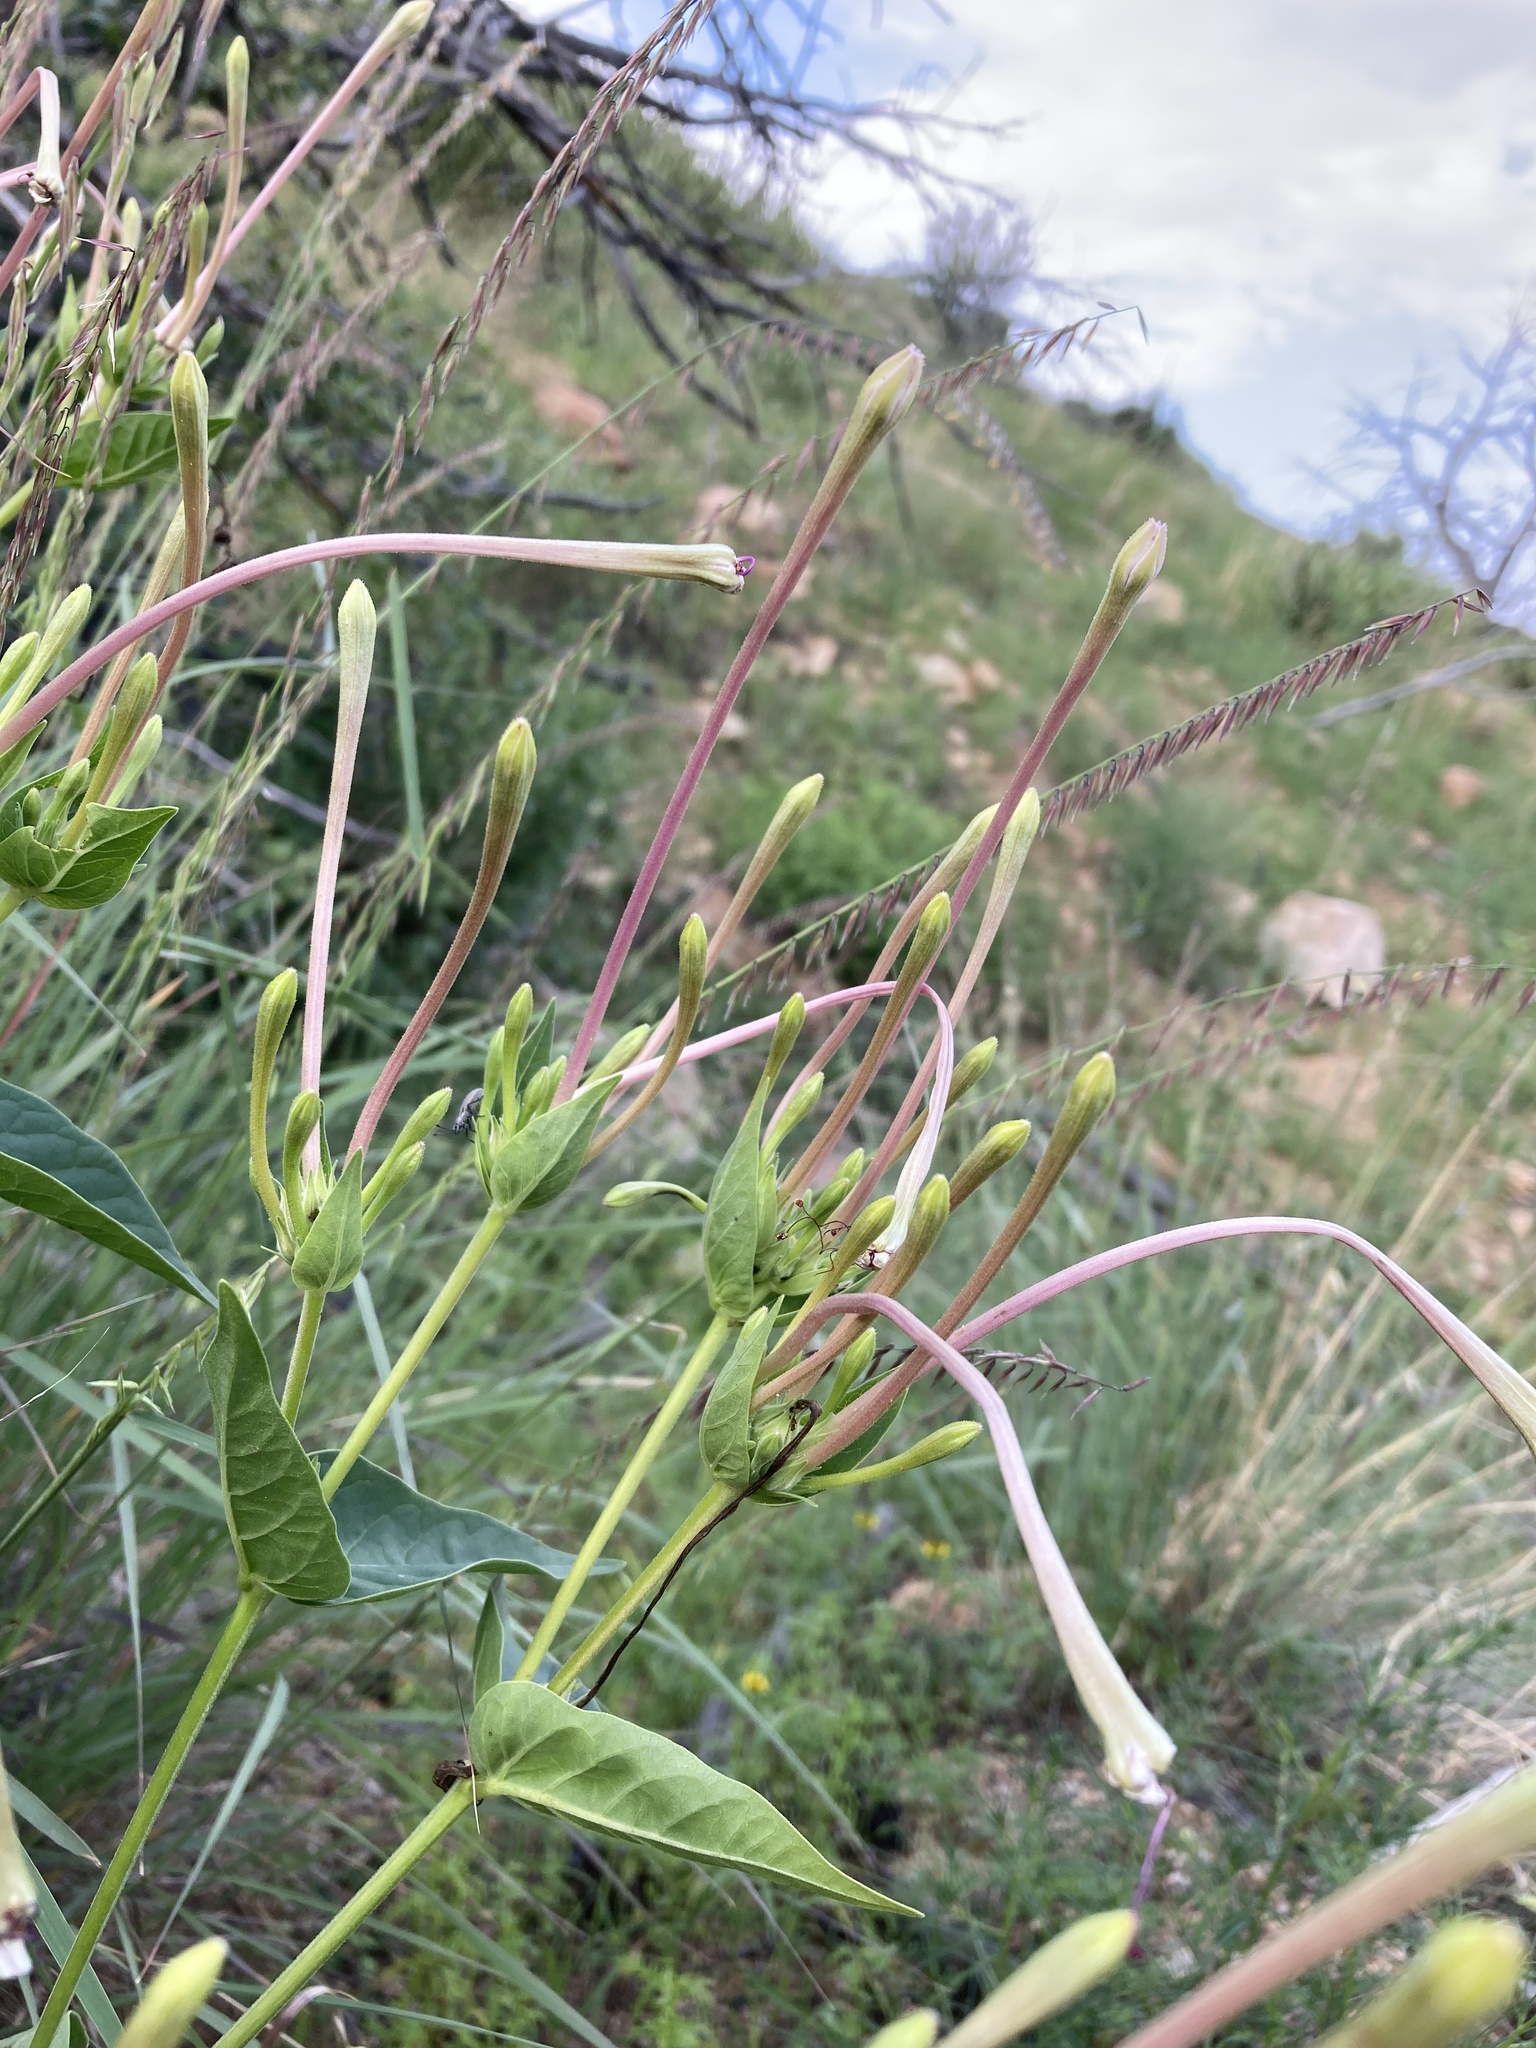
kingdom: Plantae
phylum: Tracheophyta
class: Magnoliopsida
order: Caryophyllales
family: Nyctaginaceae
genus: Mirabilis
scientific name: Mirabilis longiflora
